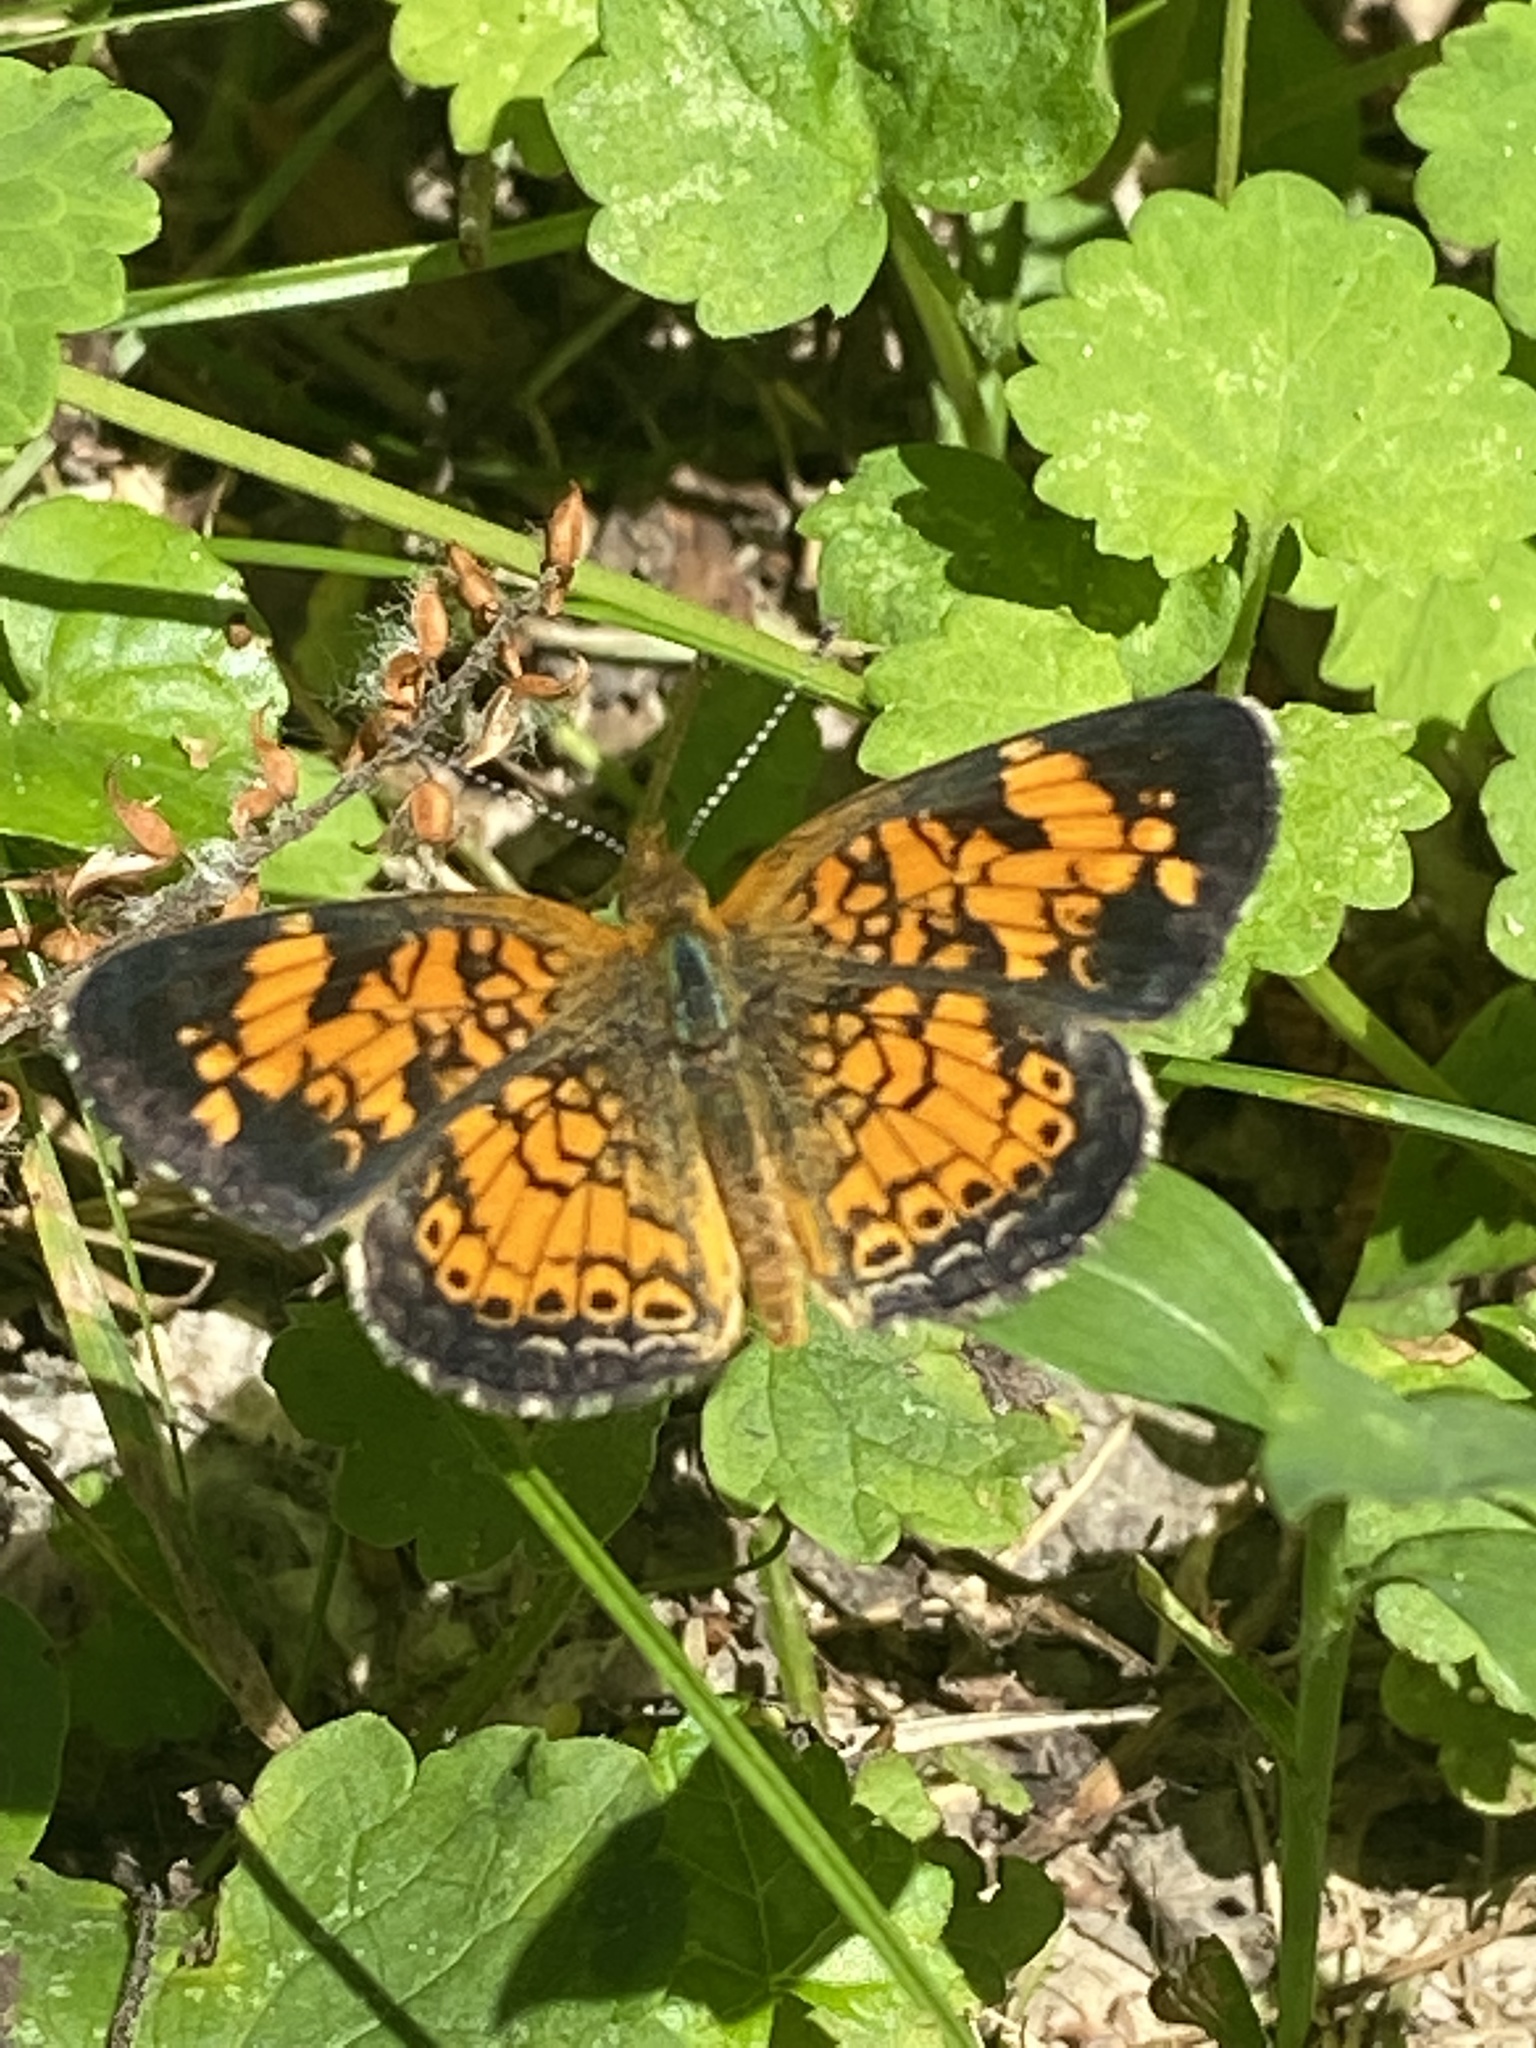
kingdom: Animalia
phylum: Arthropoda
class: Insecta
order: Lepidoptera
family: Nymphalidae
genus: Phyciodes
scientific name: Phyciodes tharos
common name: Pearl crescent
